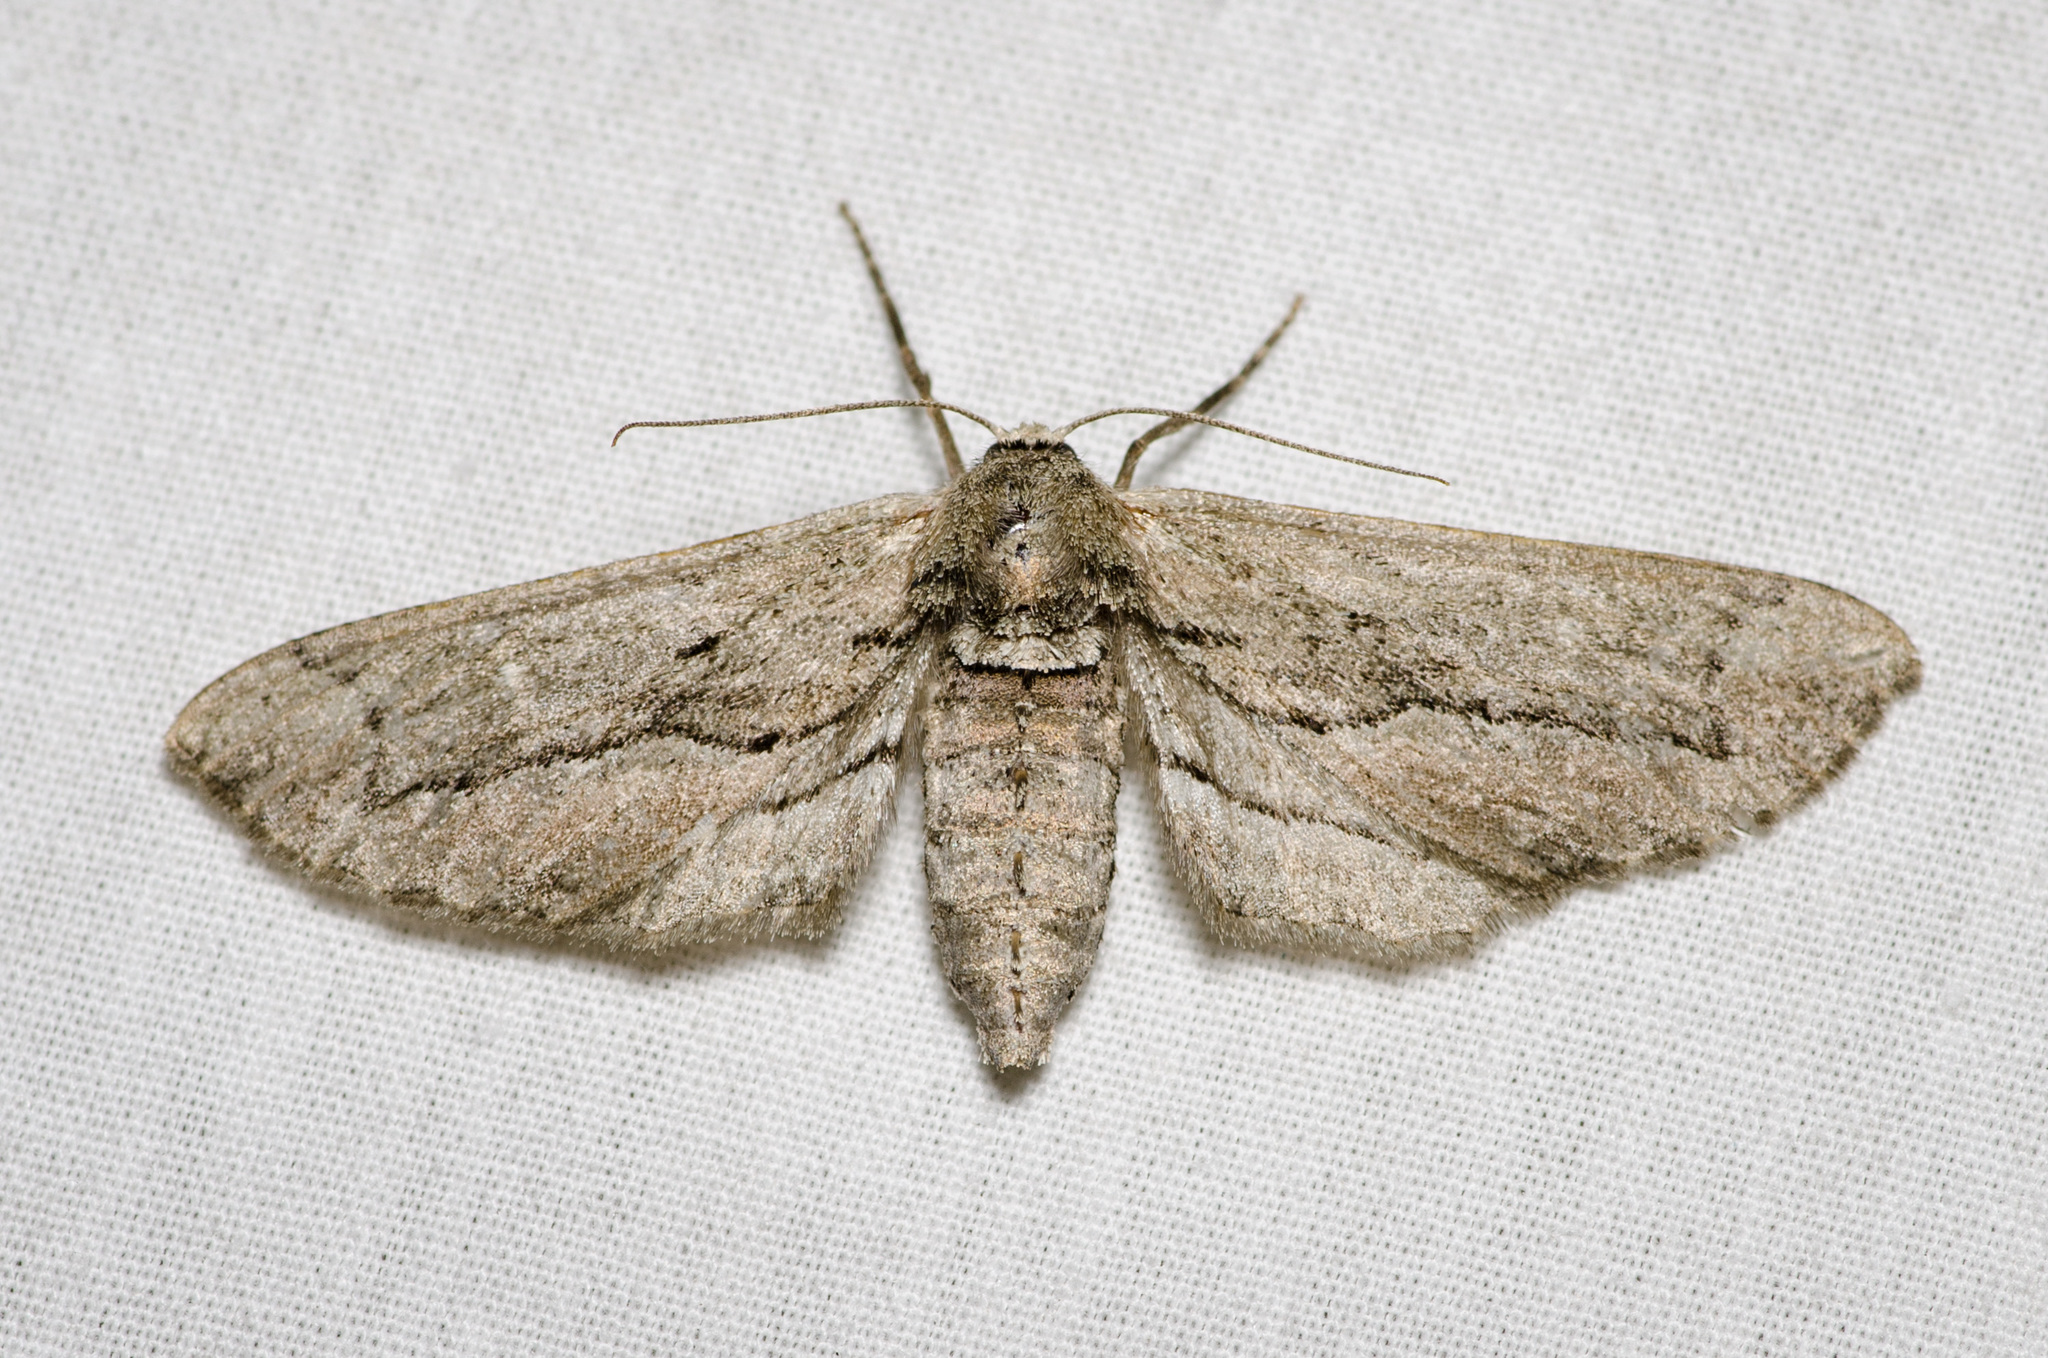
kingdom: Animalia
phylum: Arthropoda
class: Insecta
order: Lepidoptera
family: Geometridae
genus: Holochroa
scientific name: Holochroa dissociarius
